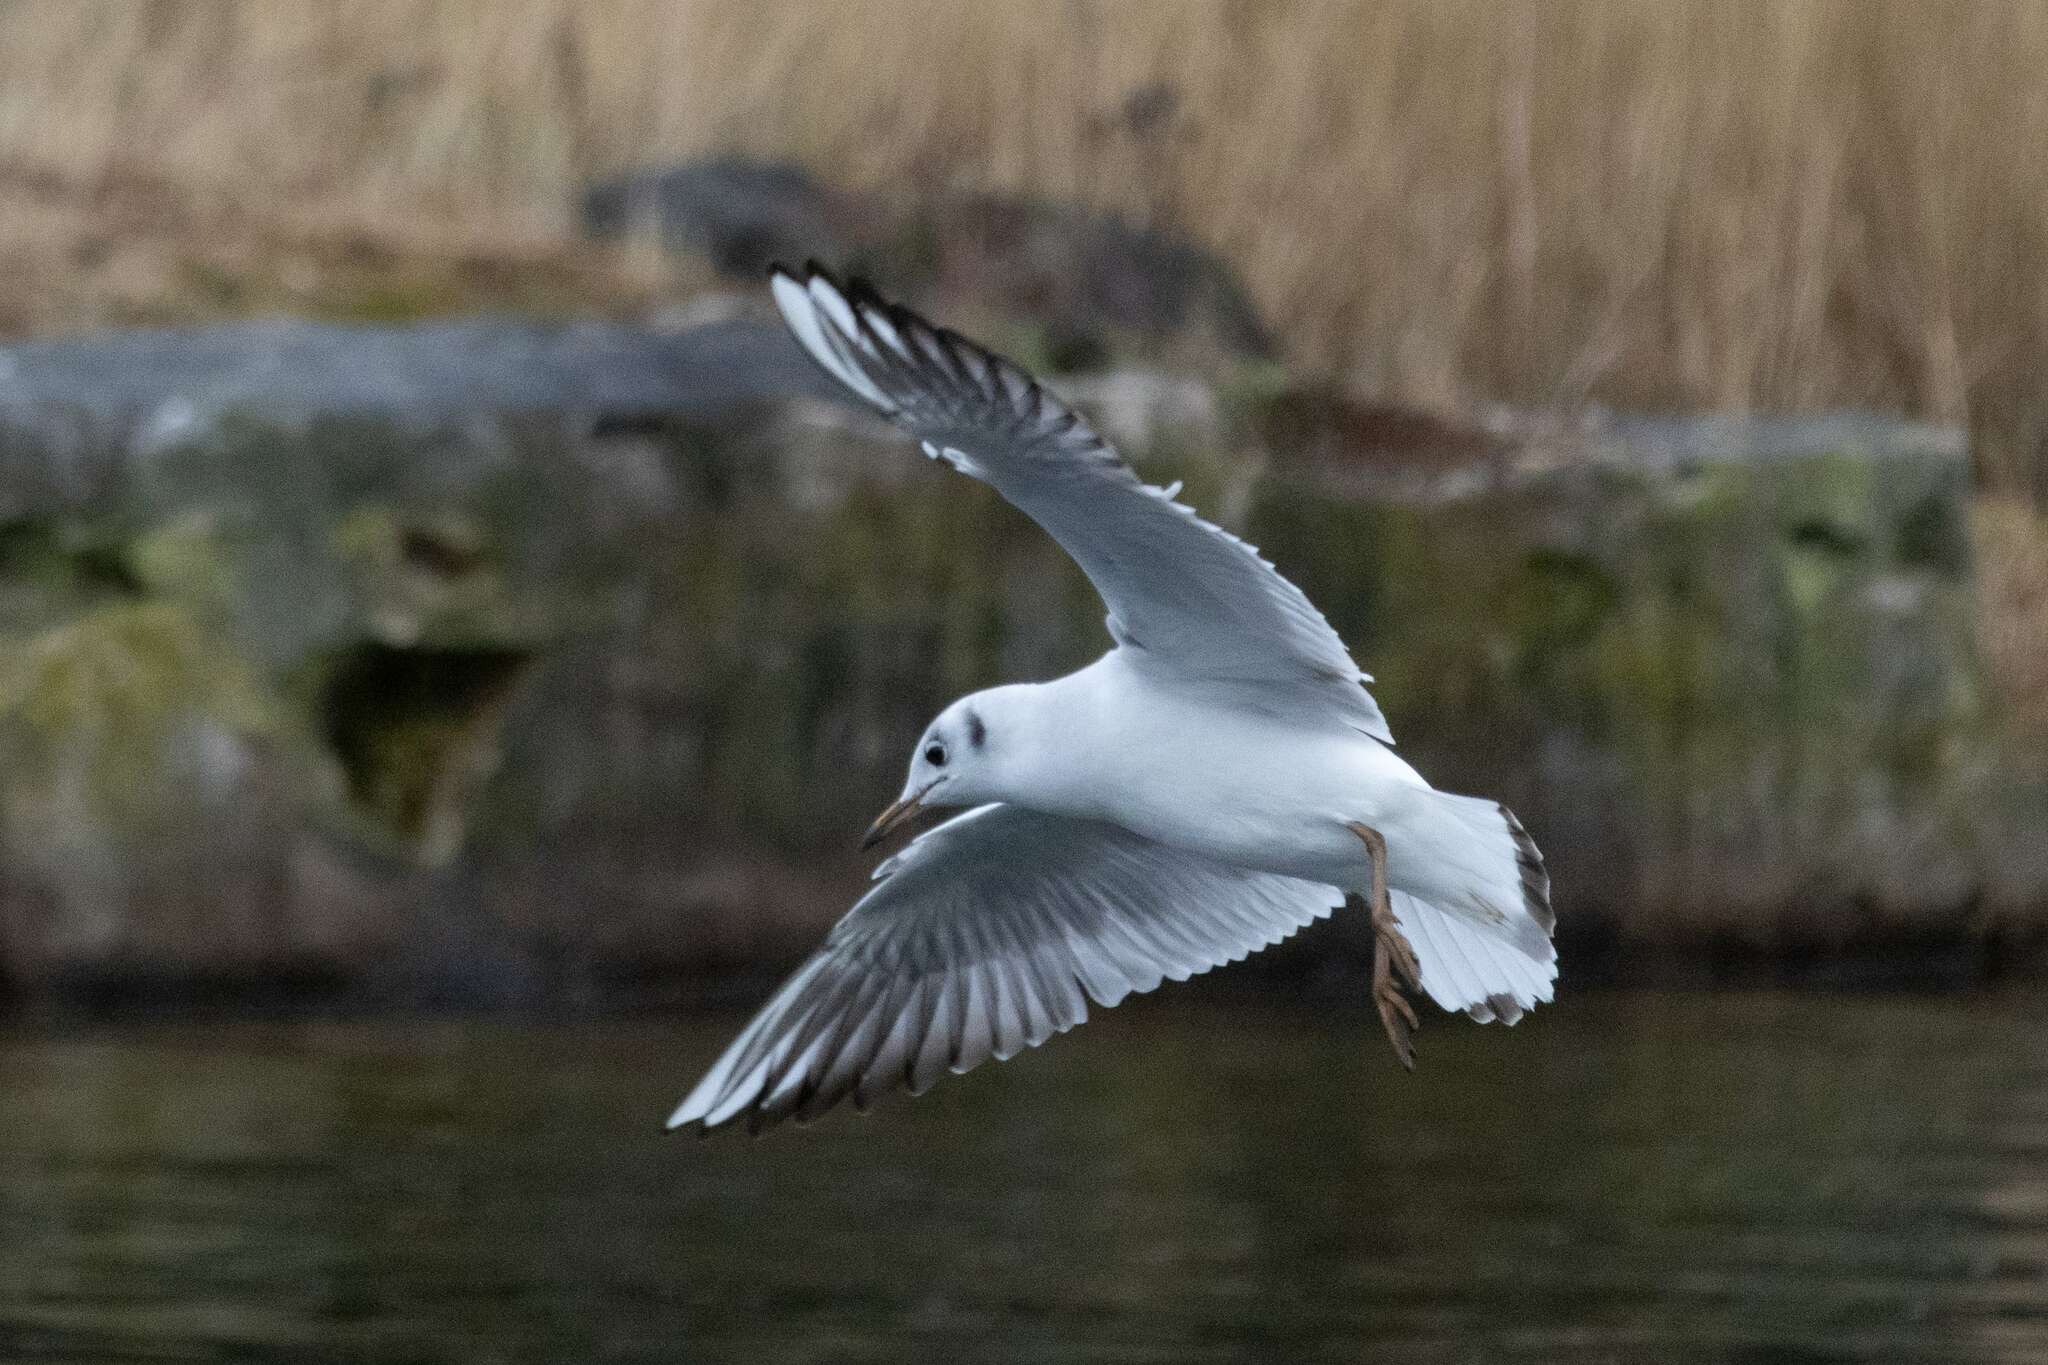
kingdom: Animalia
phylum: Chordata
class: Aves
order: Charadriiformes
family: Laridae
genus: Chroicocephalus
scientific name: Chroicocephalus ridibundus
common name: Black-headed gull
